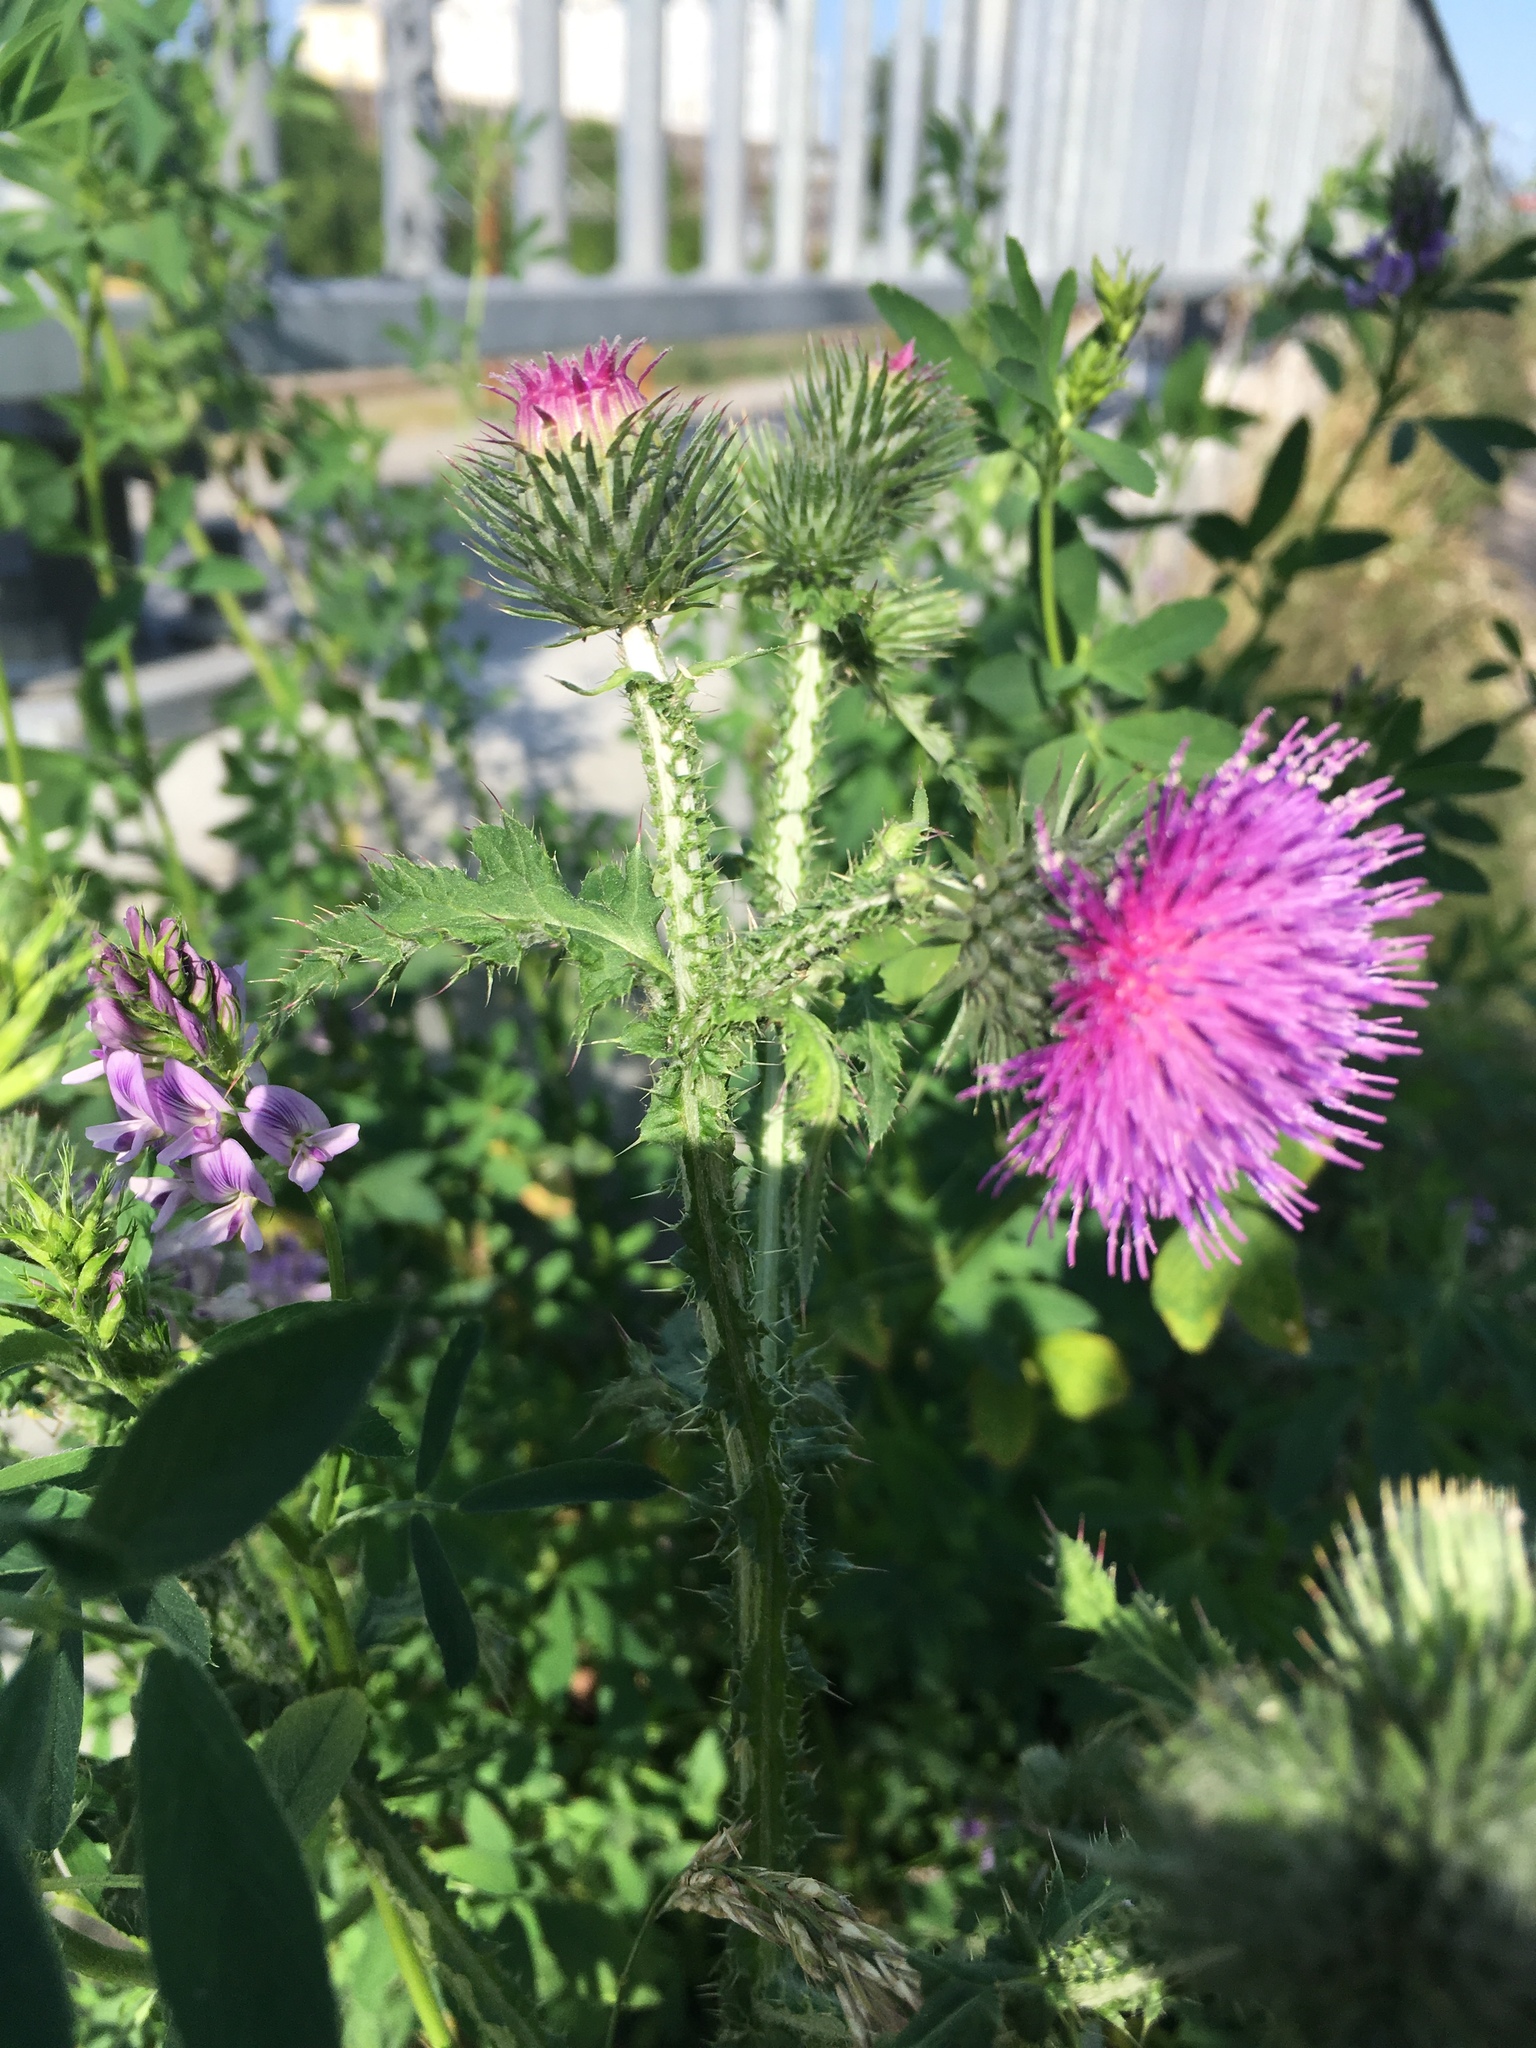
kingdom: Plantae
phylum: Tracheophyta
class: Magnoliopsida
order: Asterales
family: Asteraceae
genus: Carduus
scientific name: Carduus crispus
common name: Welted thistle
